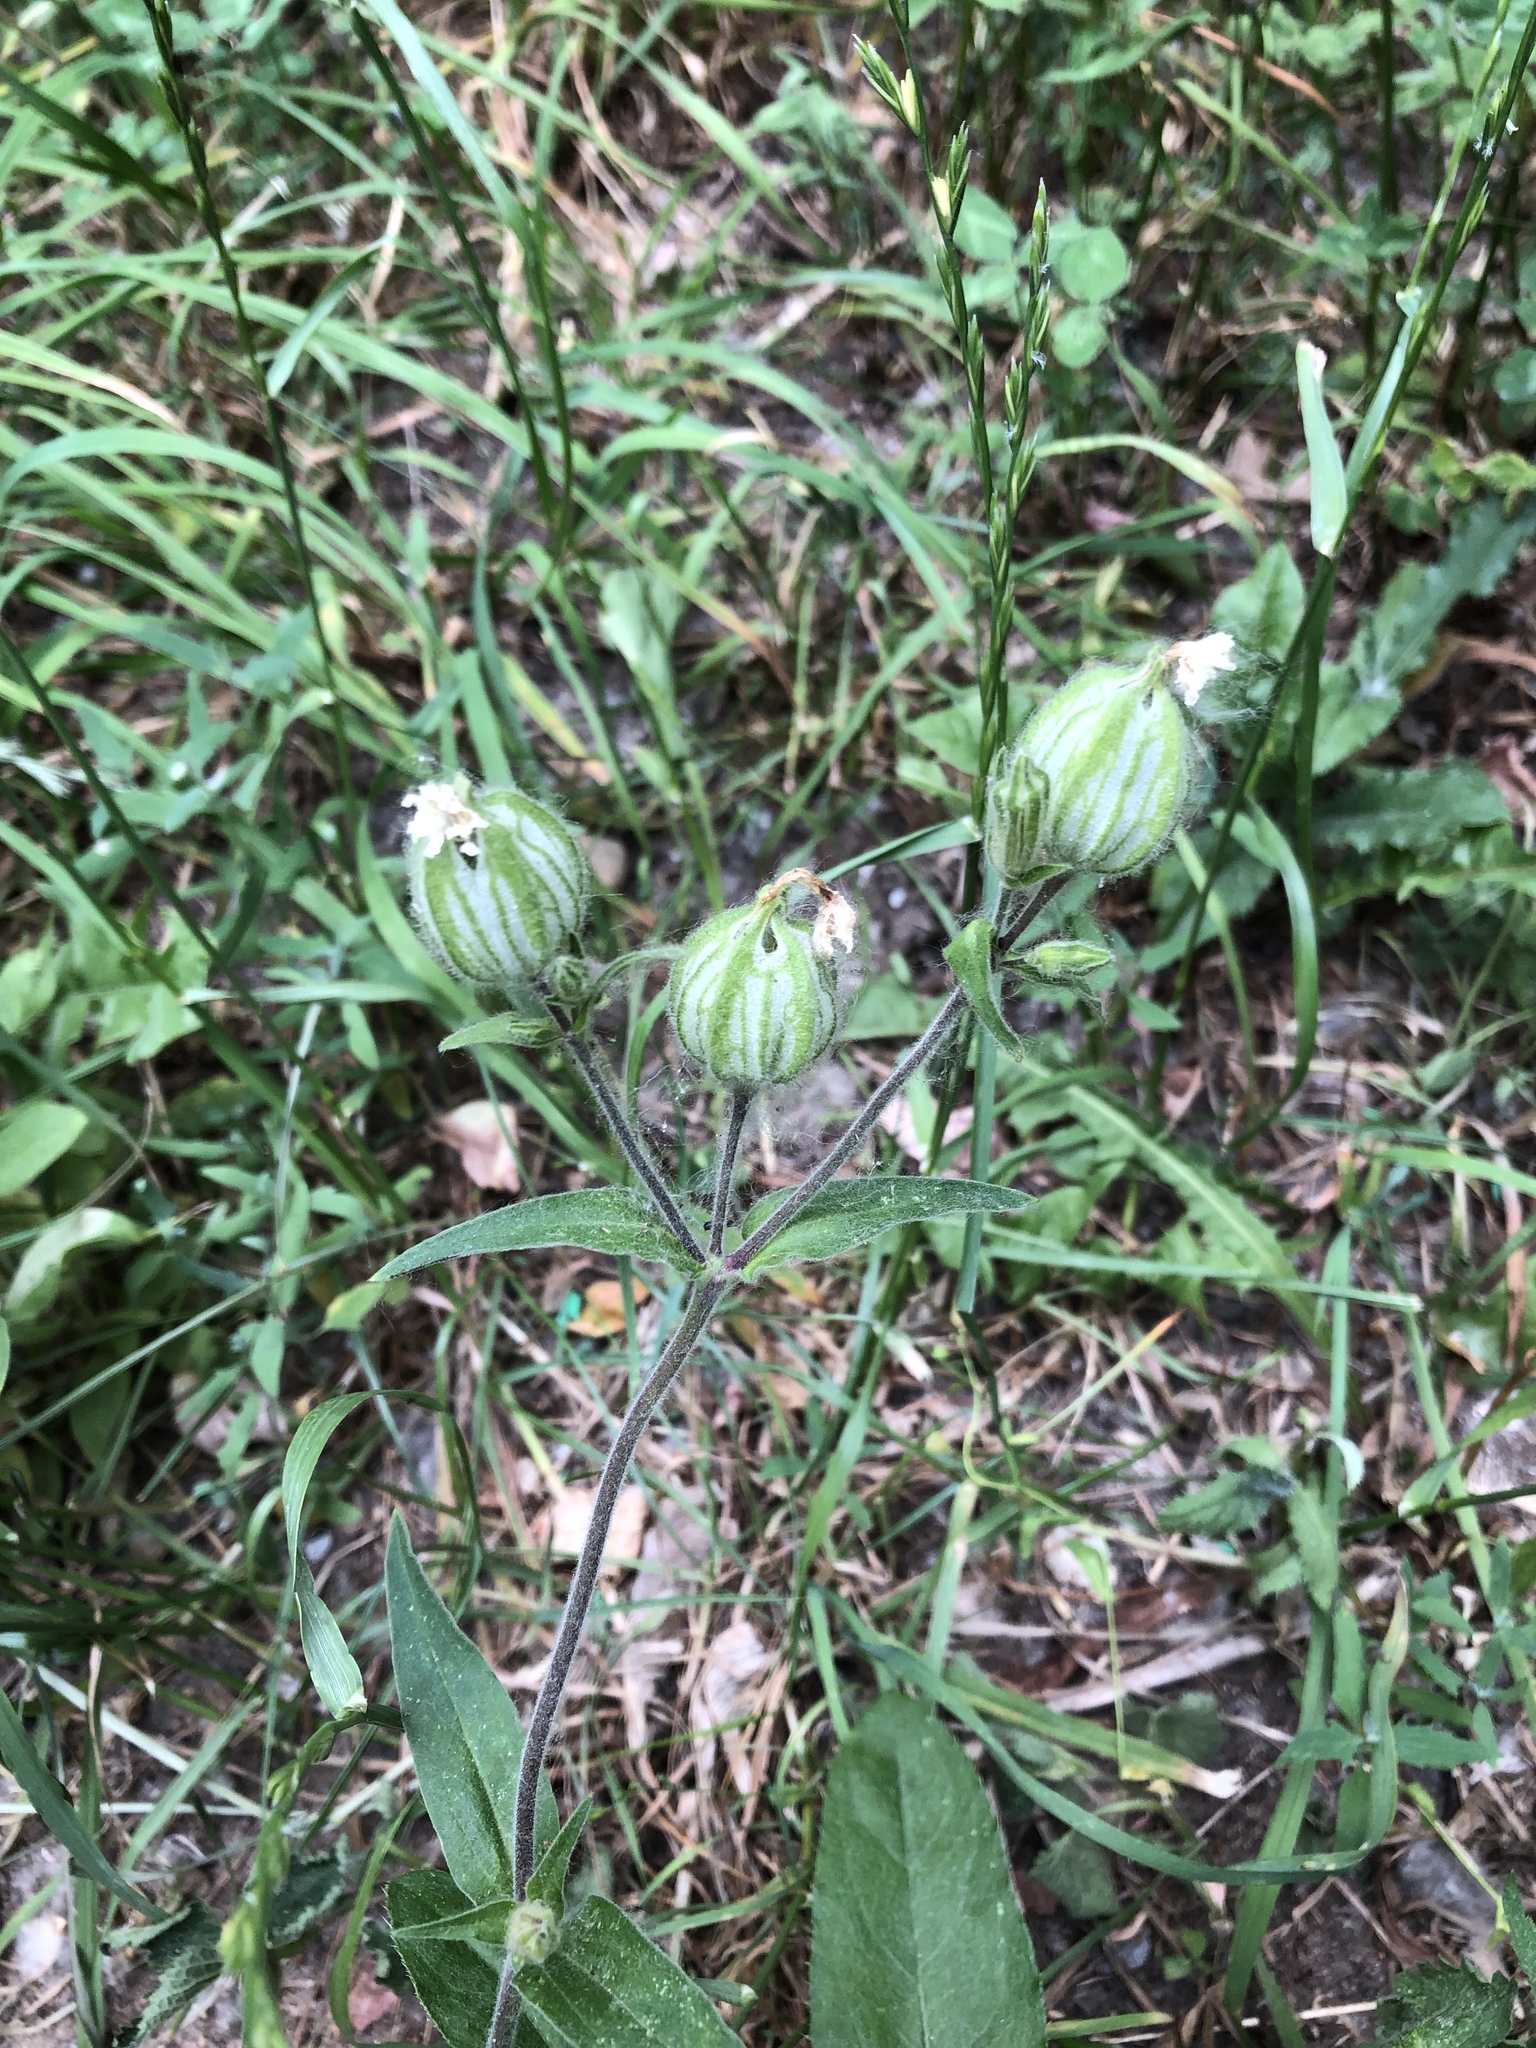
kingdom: Plantae
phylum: Tracheophyta
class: Magnoliopsida
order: Caryophyllales
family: Caryophyllaceae
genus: Silene
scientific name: Silene latifolia
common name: White campion
